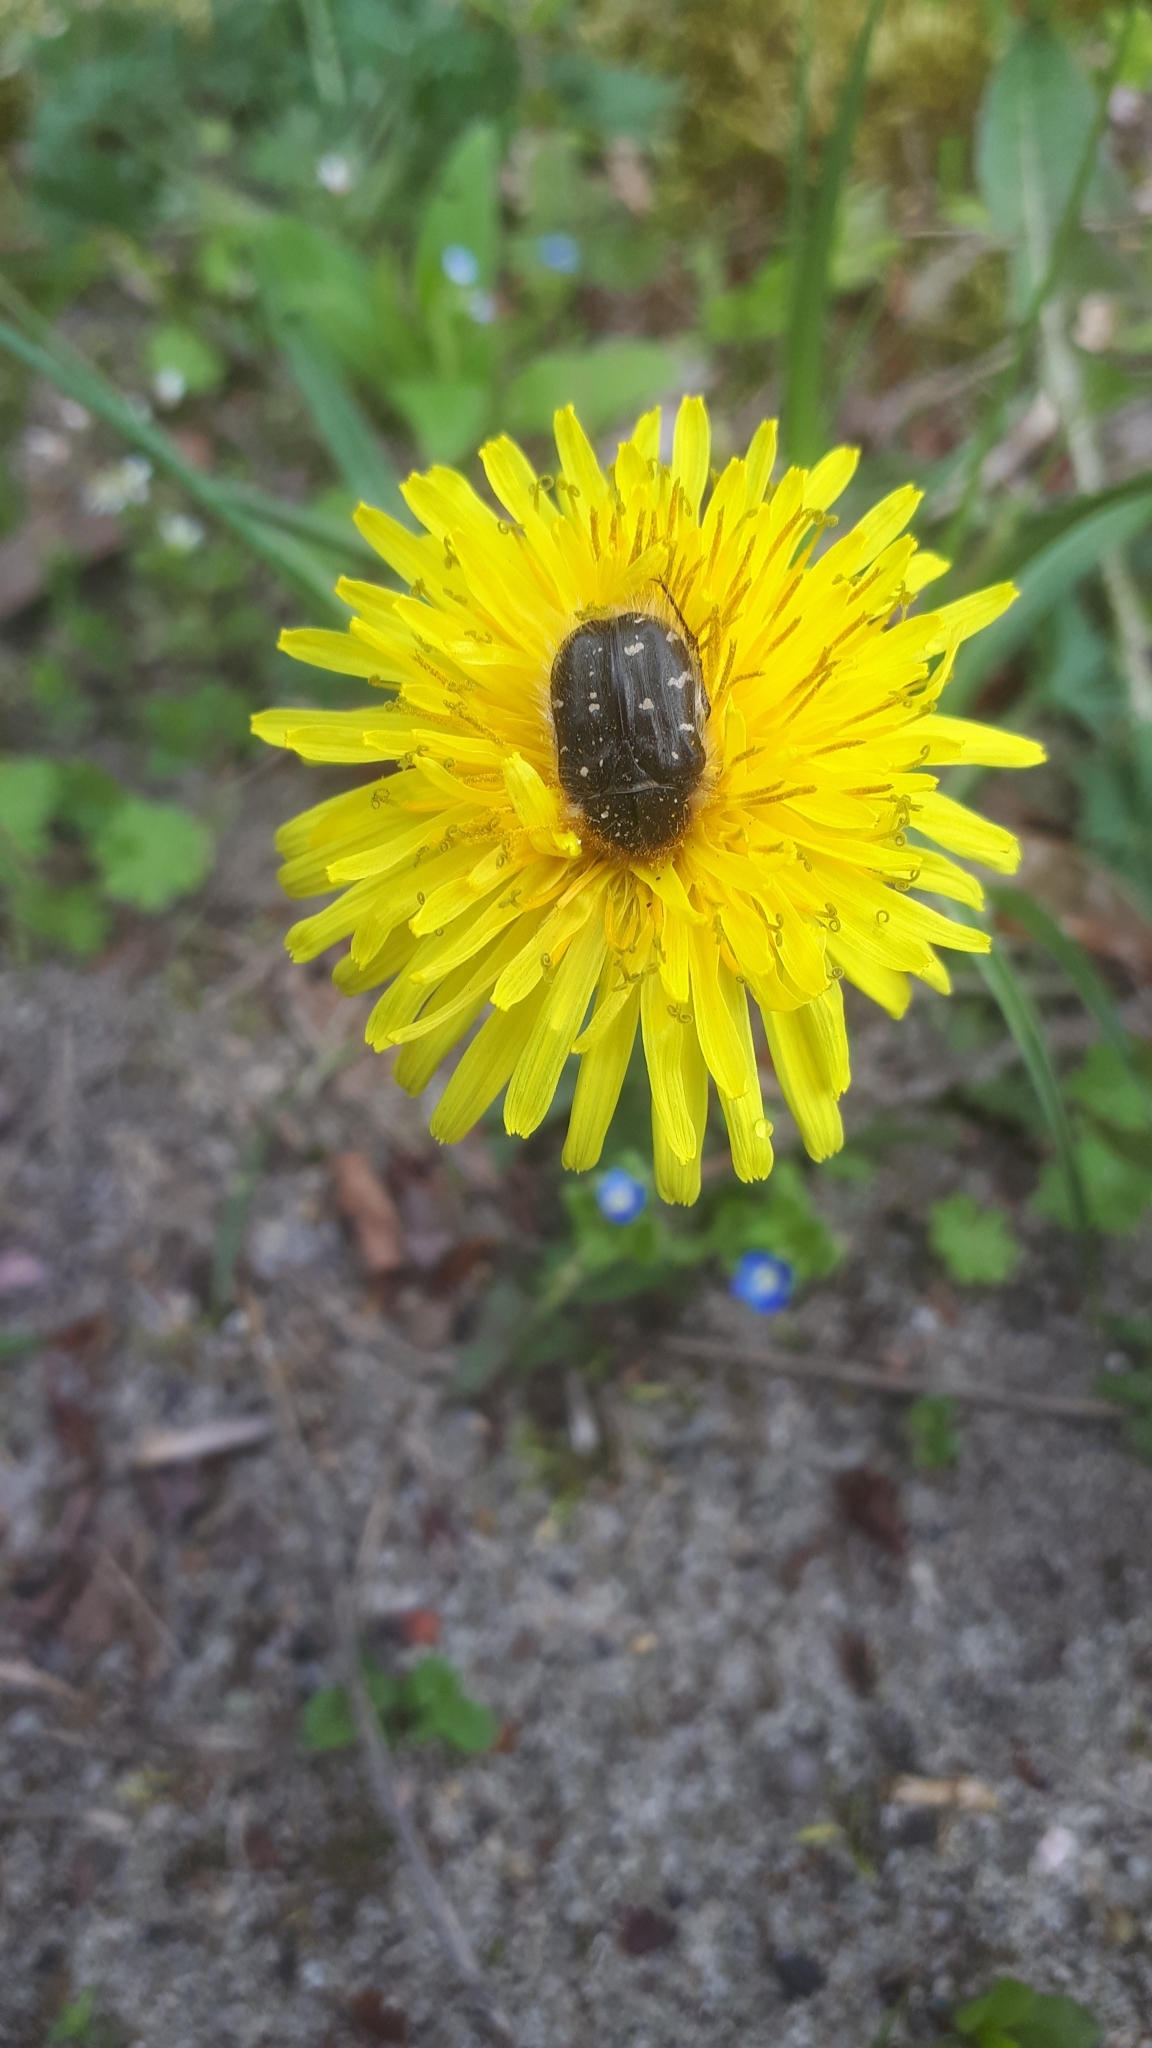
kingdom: Animalia
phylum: Arthropoda
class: Insecta
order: Coleoptera
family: Scarabaeidae
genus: Tropinota
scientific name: Tropinota hirta
